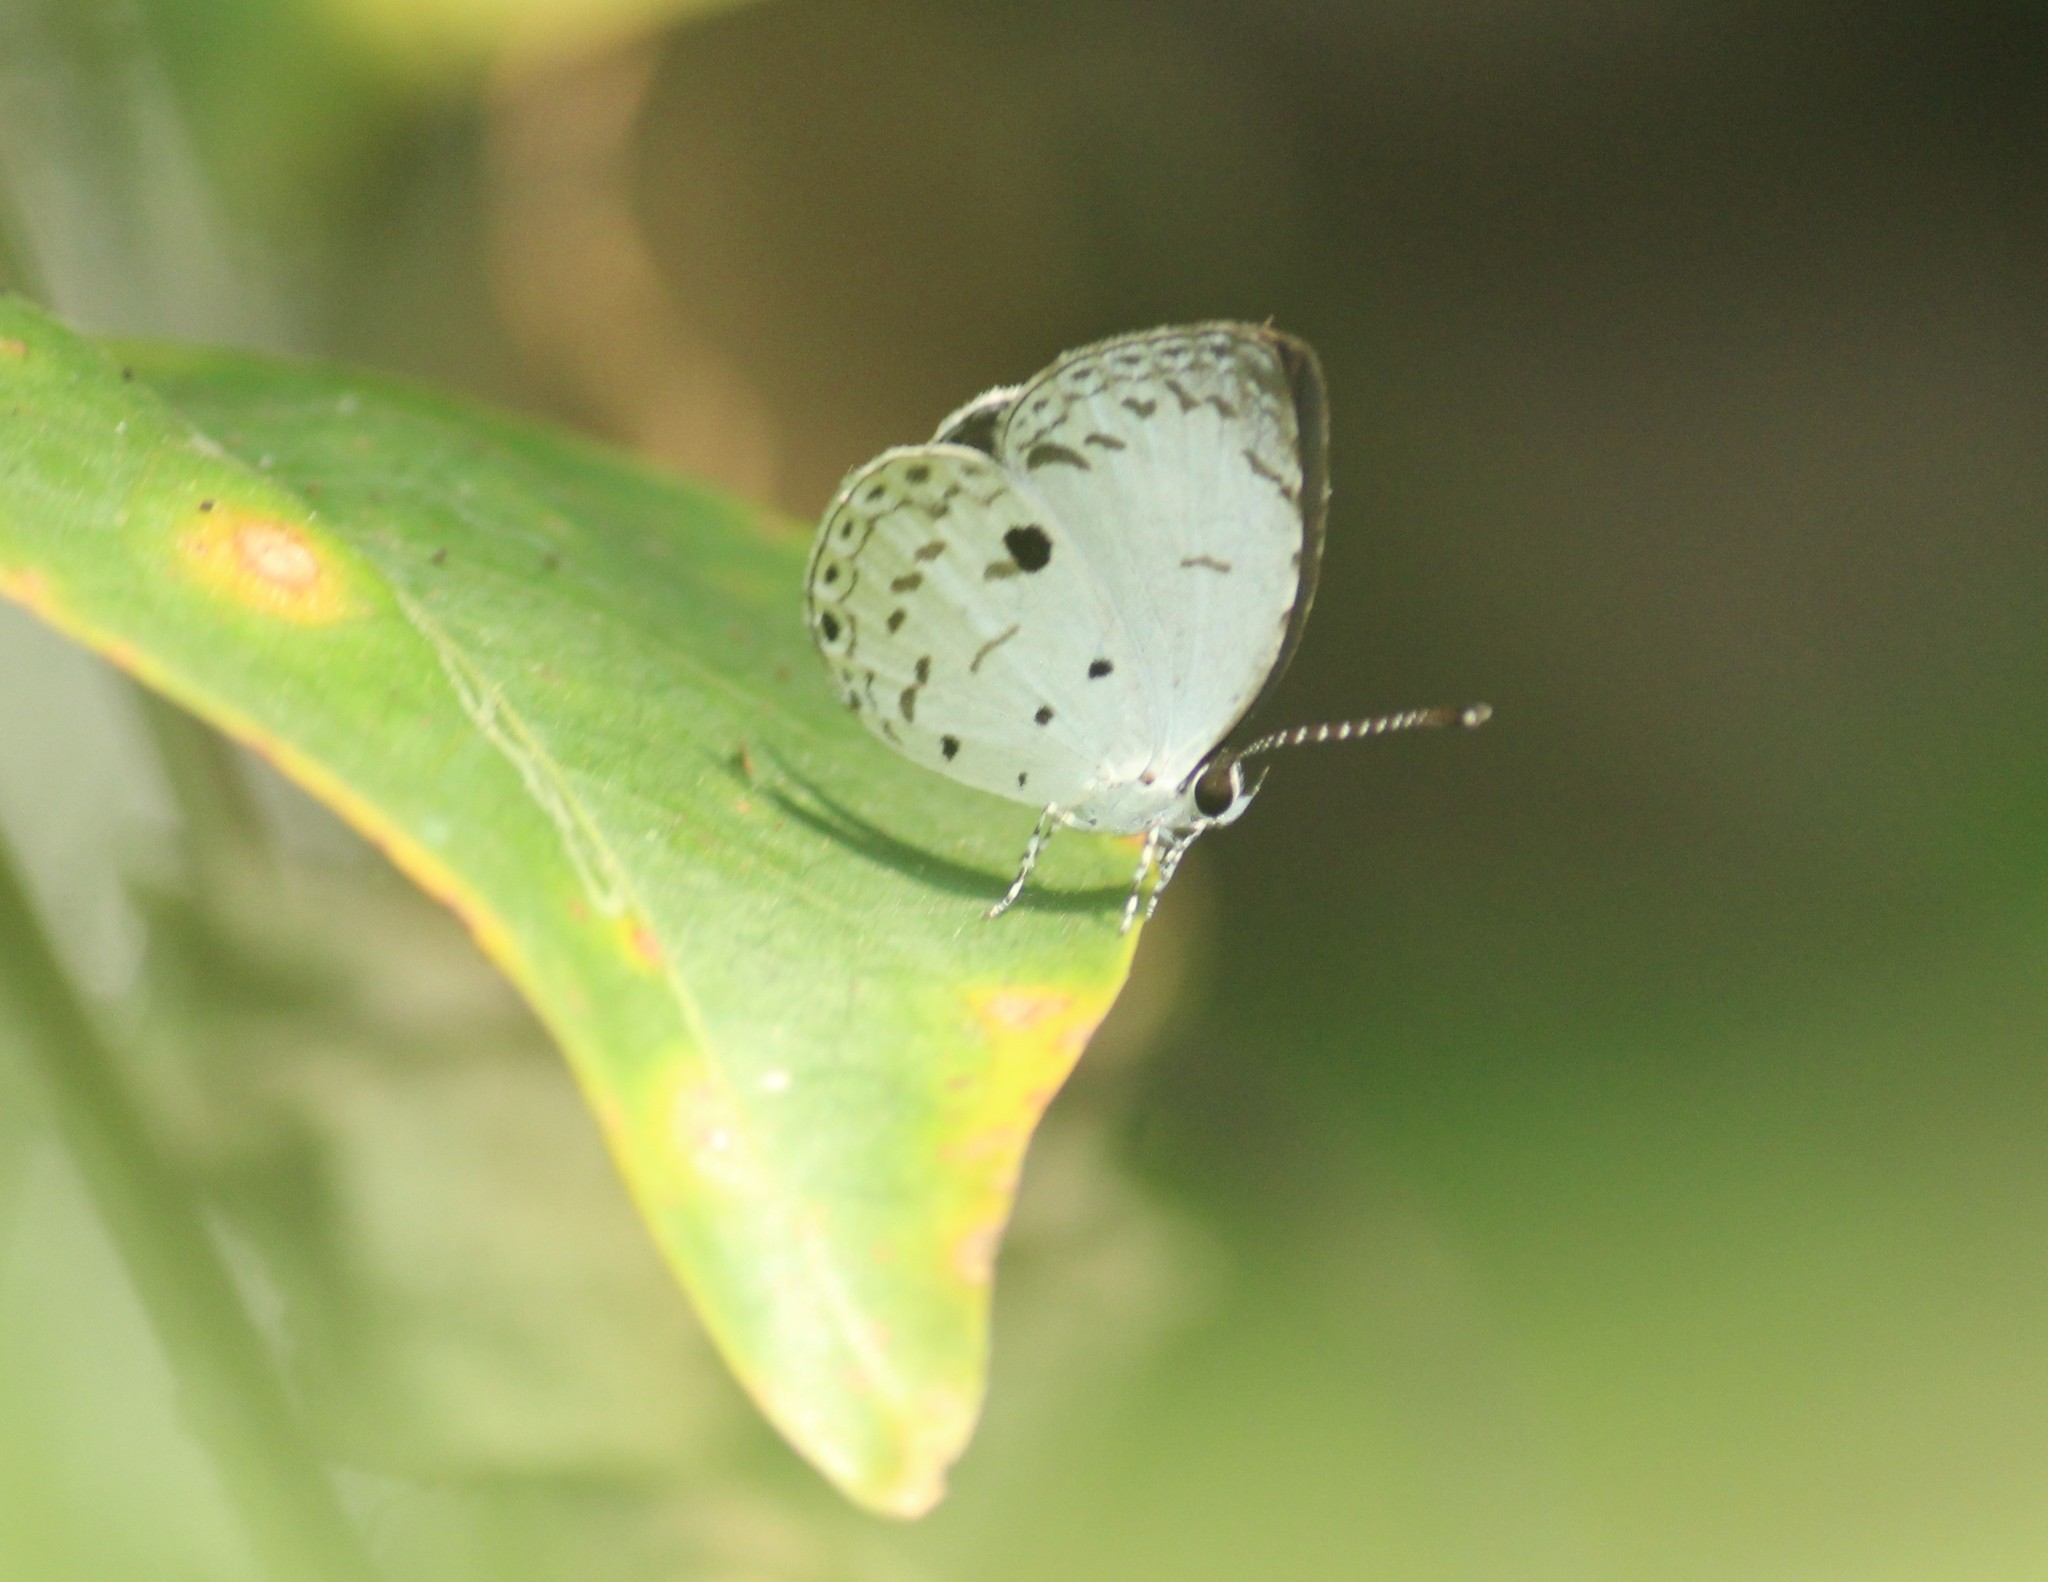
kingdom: Animalia
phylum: Arthropoda
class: Insecta
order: Lepidoptera
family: Lycaenidae
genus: Neopithecops
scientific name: Neopithecops zalmora
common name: Quaker
